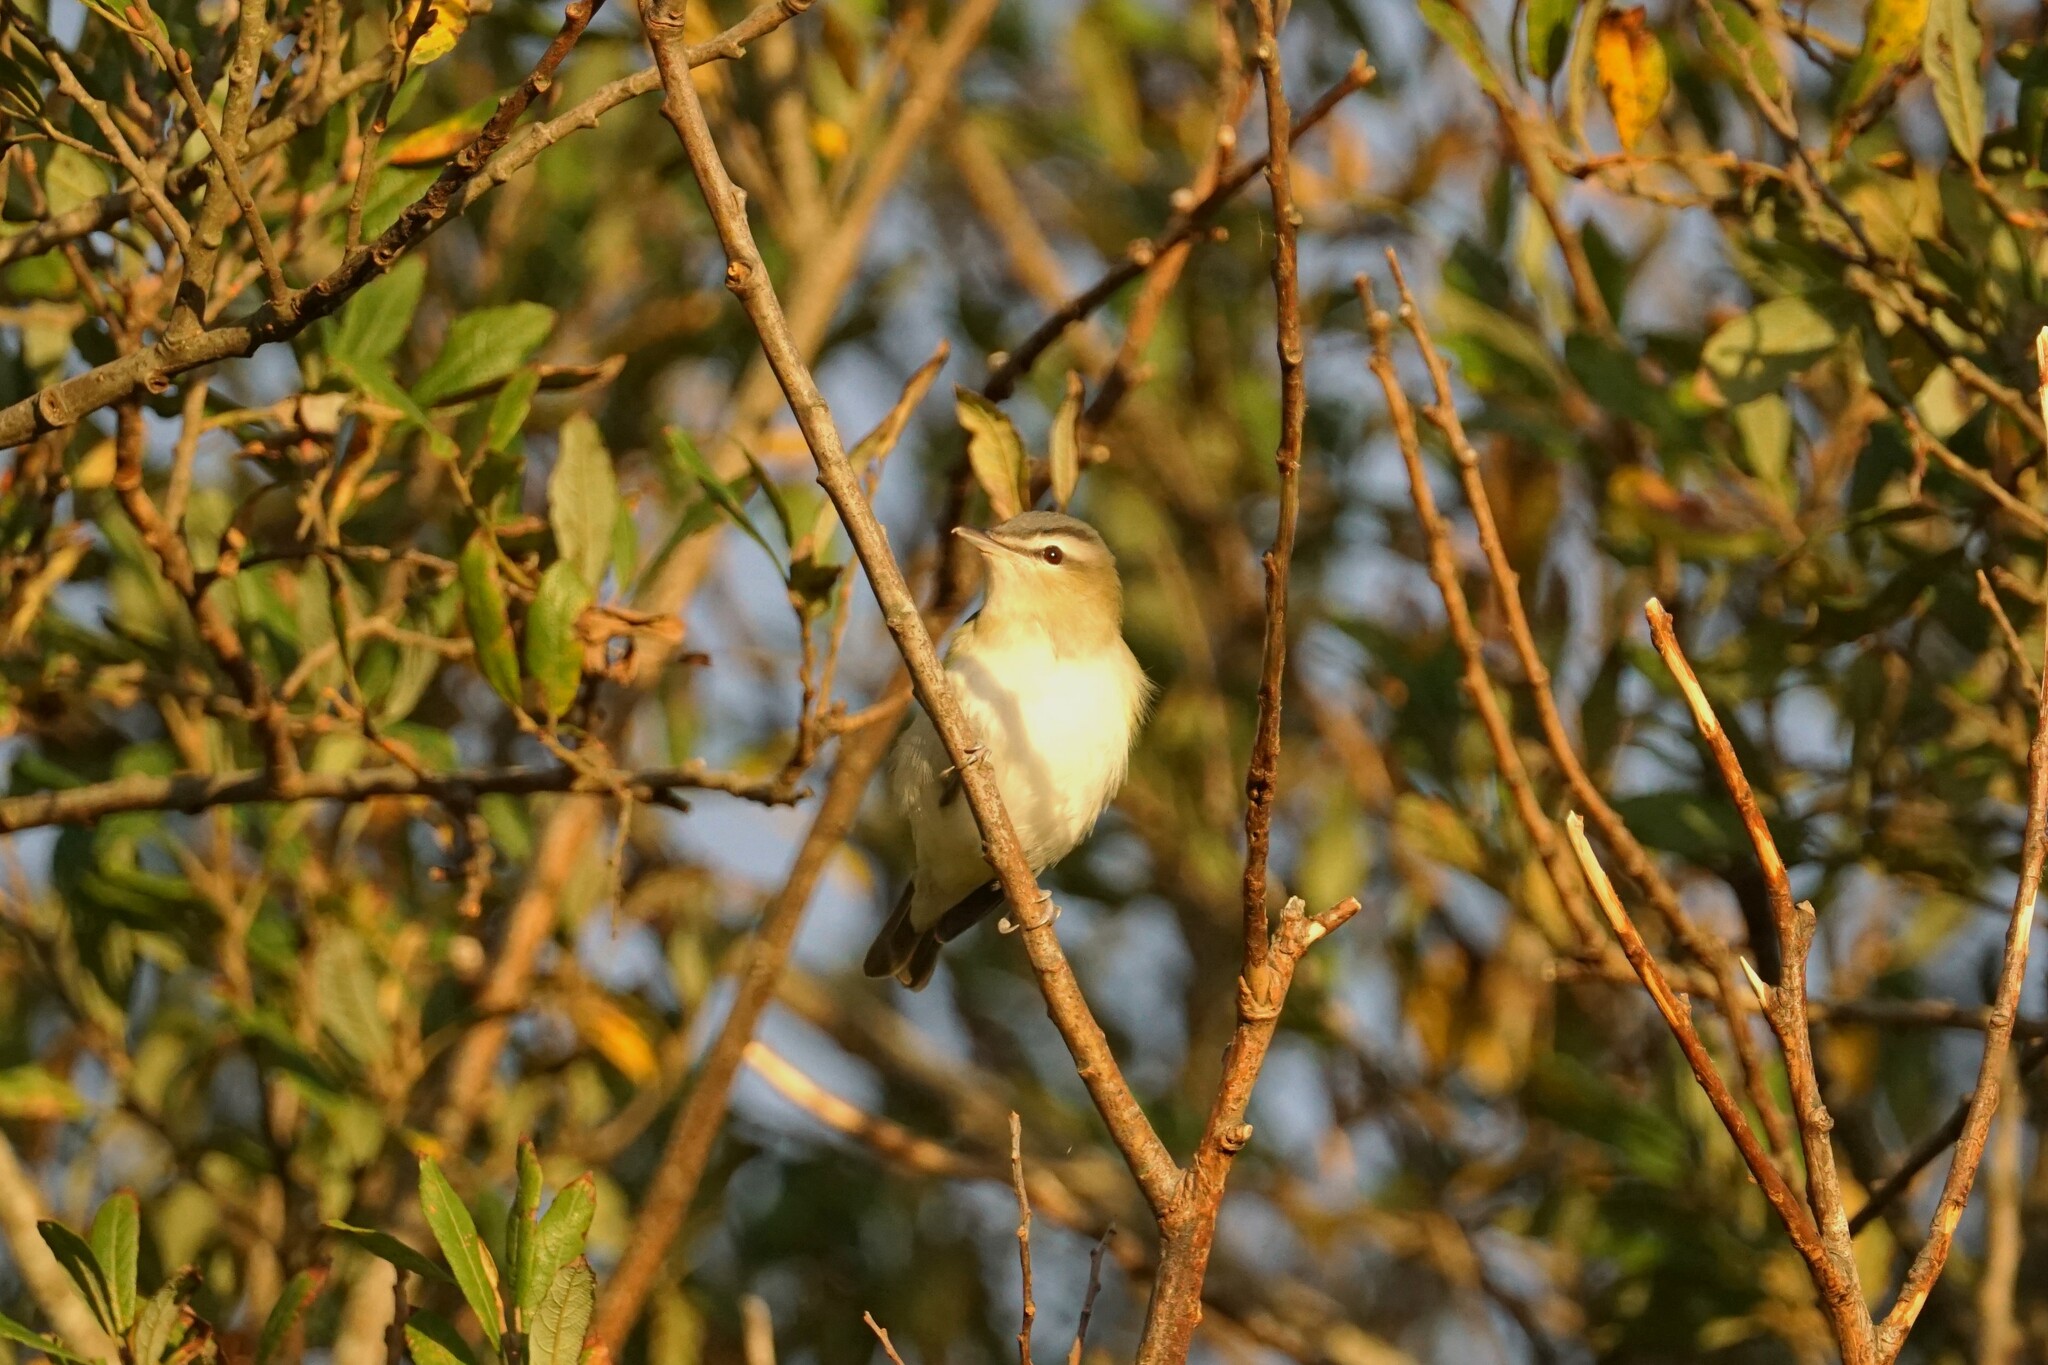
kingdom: Animalia
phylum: Chordata
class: Aves
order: Passeriformes
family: Vireonidae
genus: Vireo
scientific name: Vireo olivaceus
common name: Red-eyed vireo
